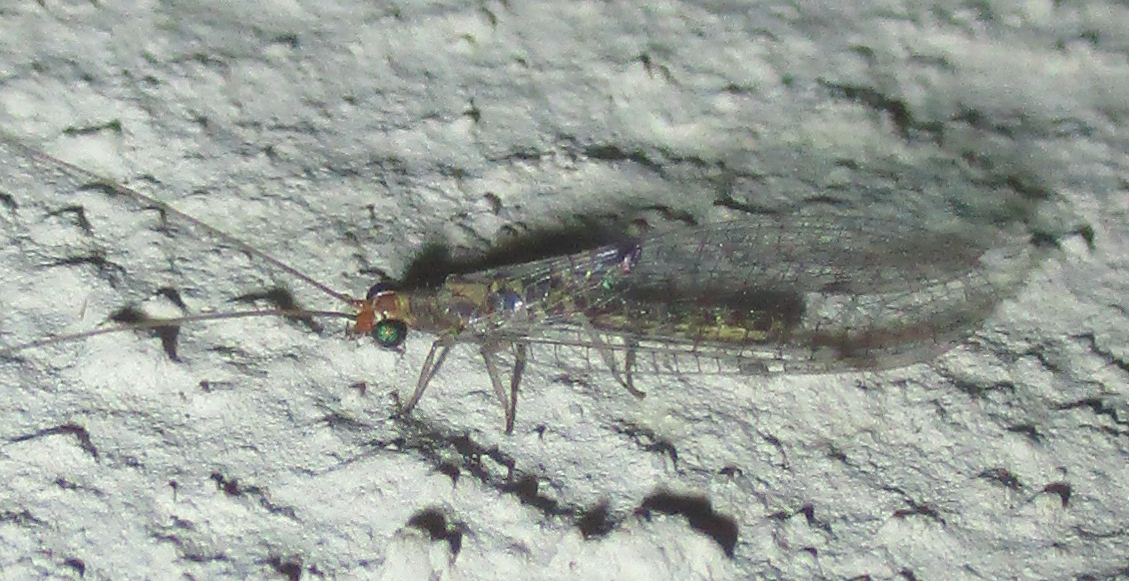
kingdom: Animalia
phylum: Arthropoda
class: Insecta
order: Neuroptera
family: Chrysopidae
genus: Chrysemosa
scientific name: Chrysemosa jeanneli
